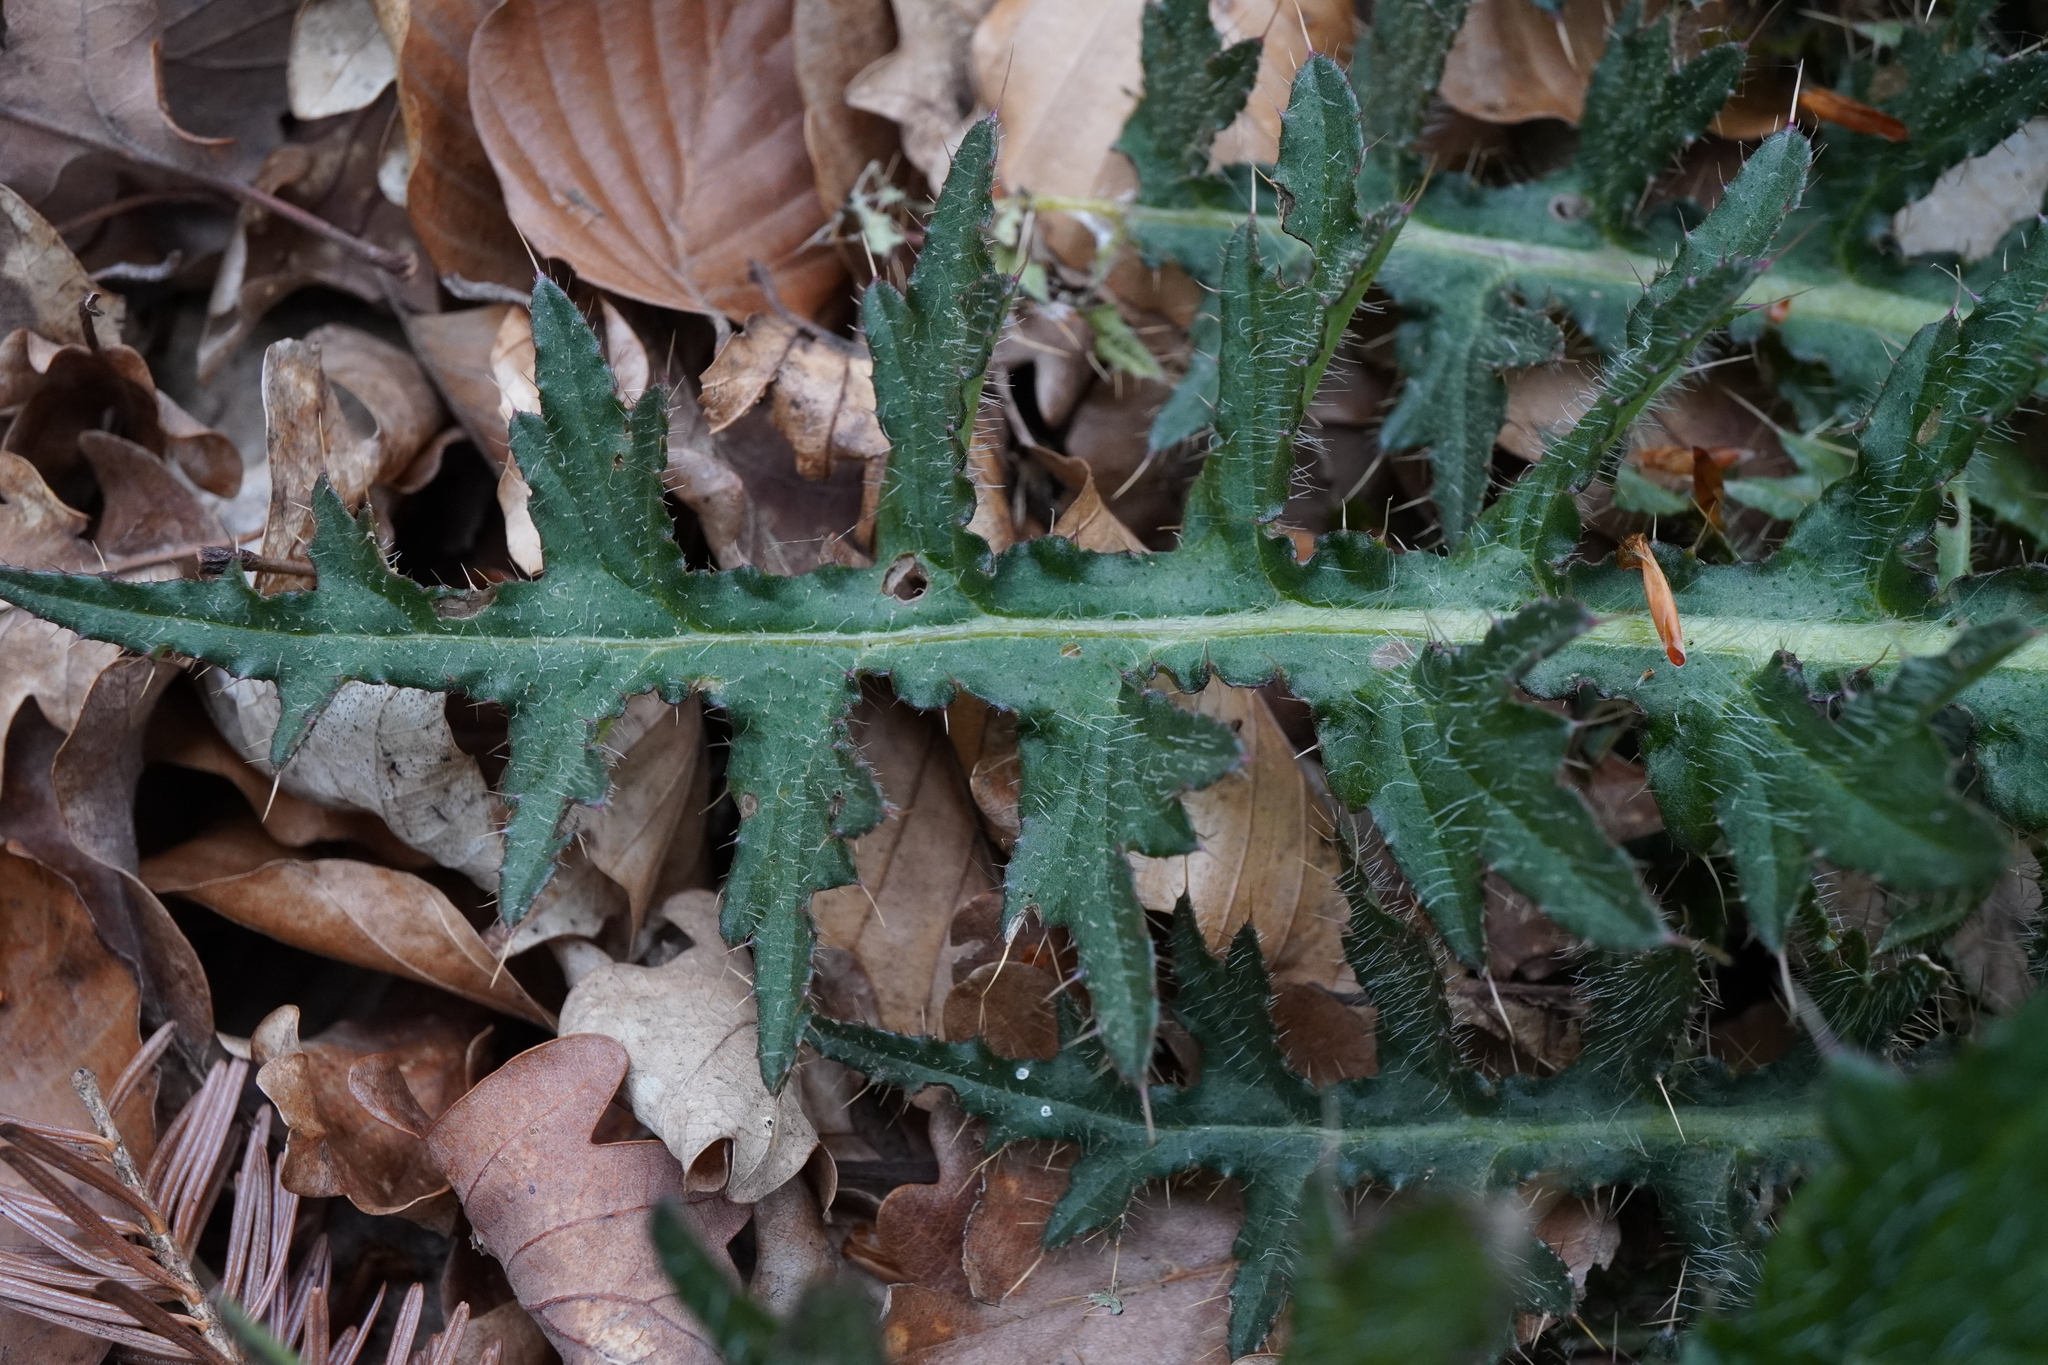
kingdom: Plantae
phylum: Tracheophyta
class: Magnoliopsida
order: Asterales
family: Asteraceae
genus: Cirsium
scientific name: Cirsium palustre
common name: Marsh thistle
